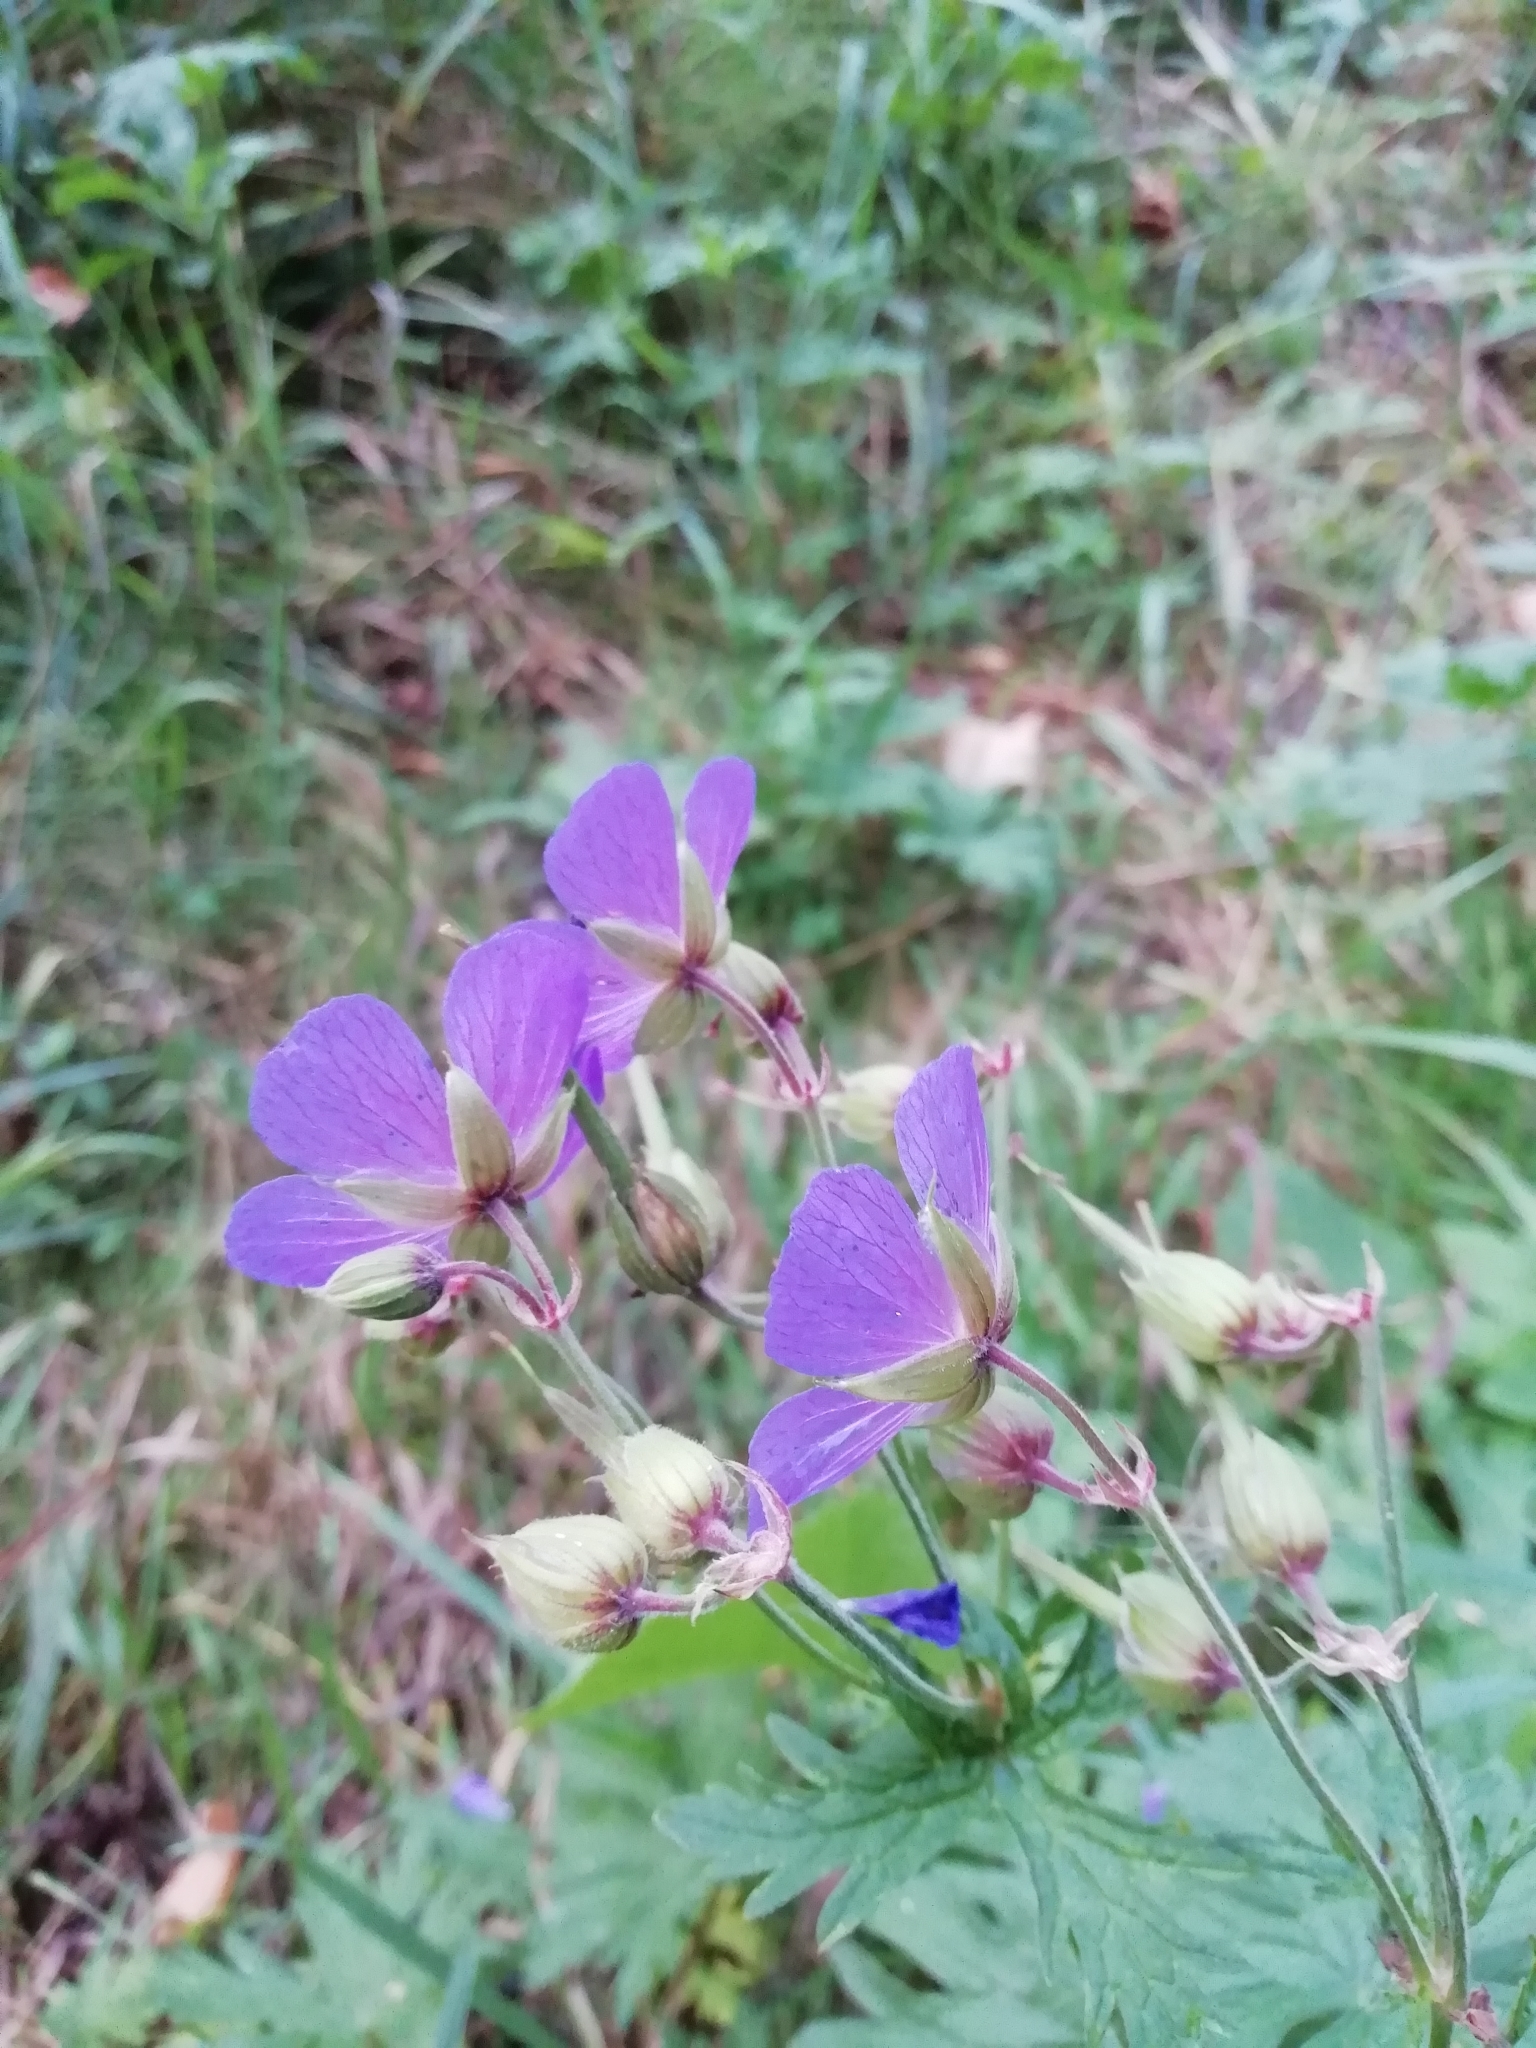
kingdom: Plantae
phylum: Tracheophyta
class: Magnoliopsida
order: Geraniales
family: Geraniaceae
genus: Geranium
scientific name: Geranium pratense
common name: Meadow crane's-bill
